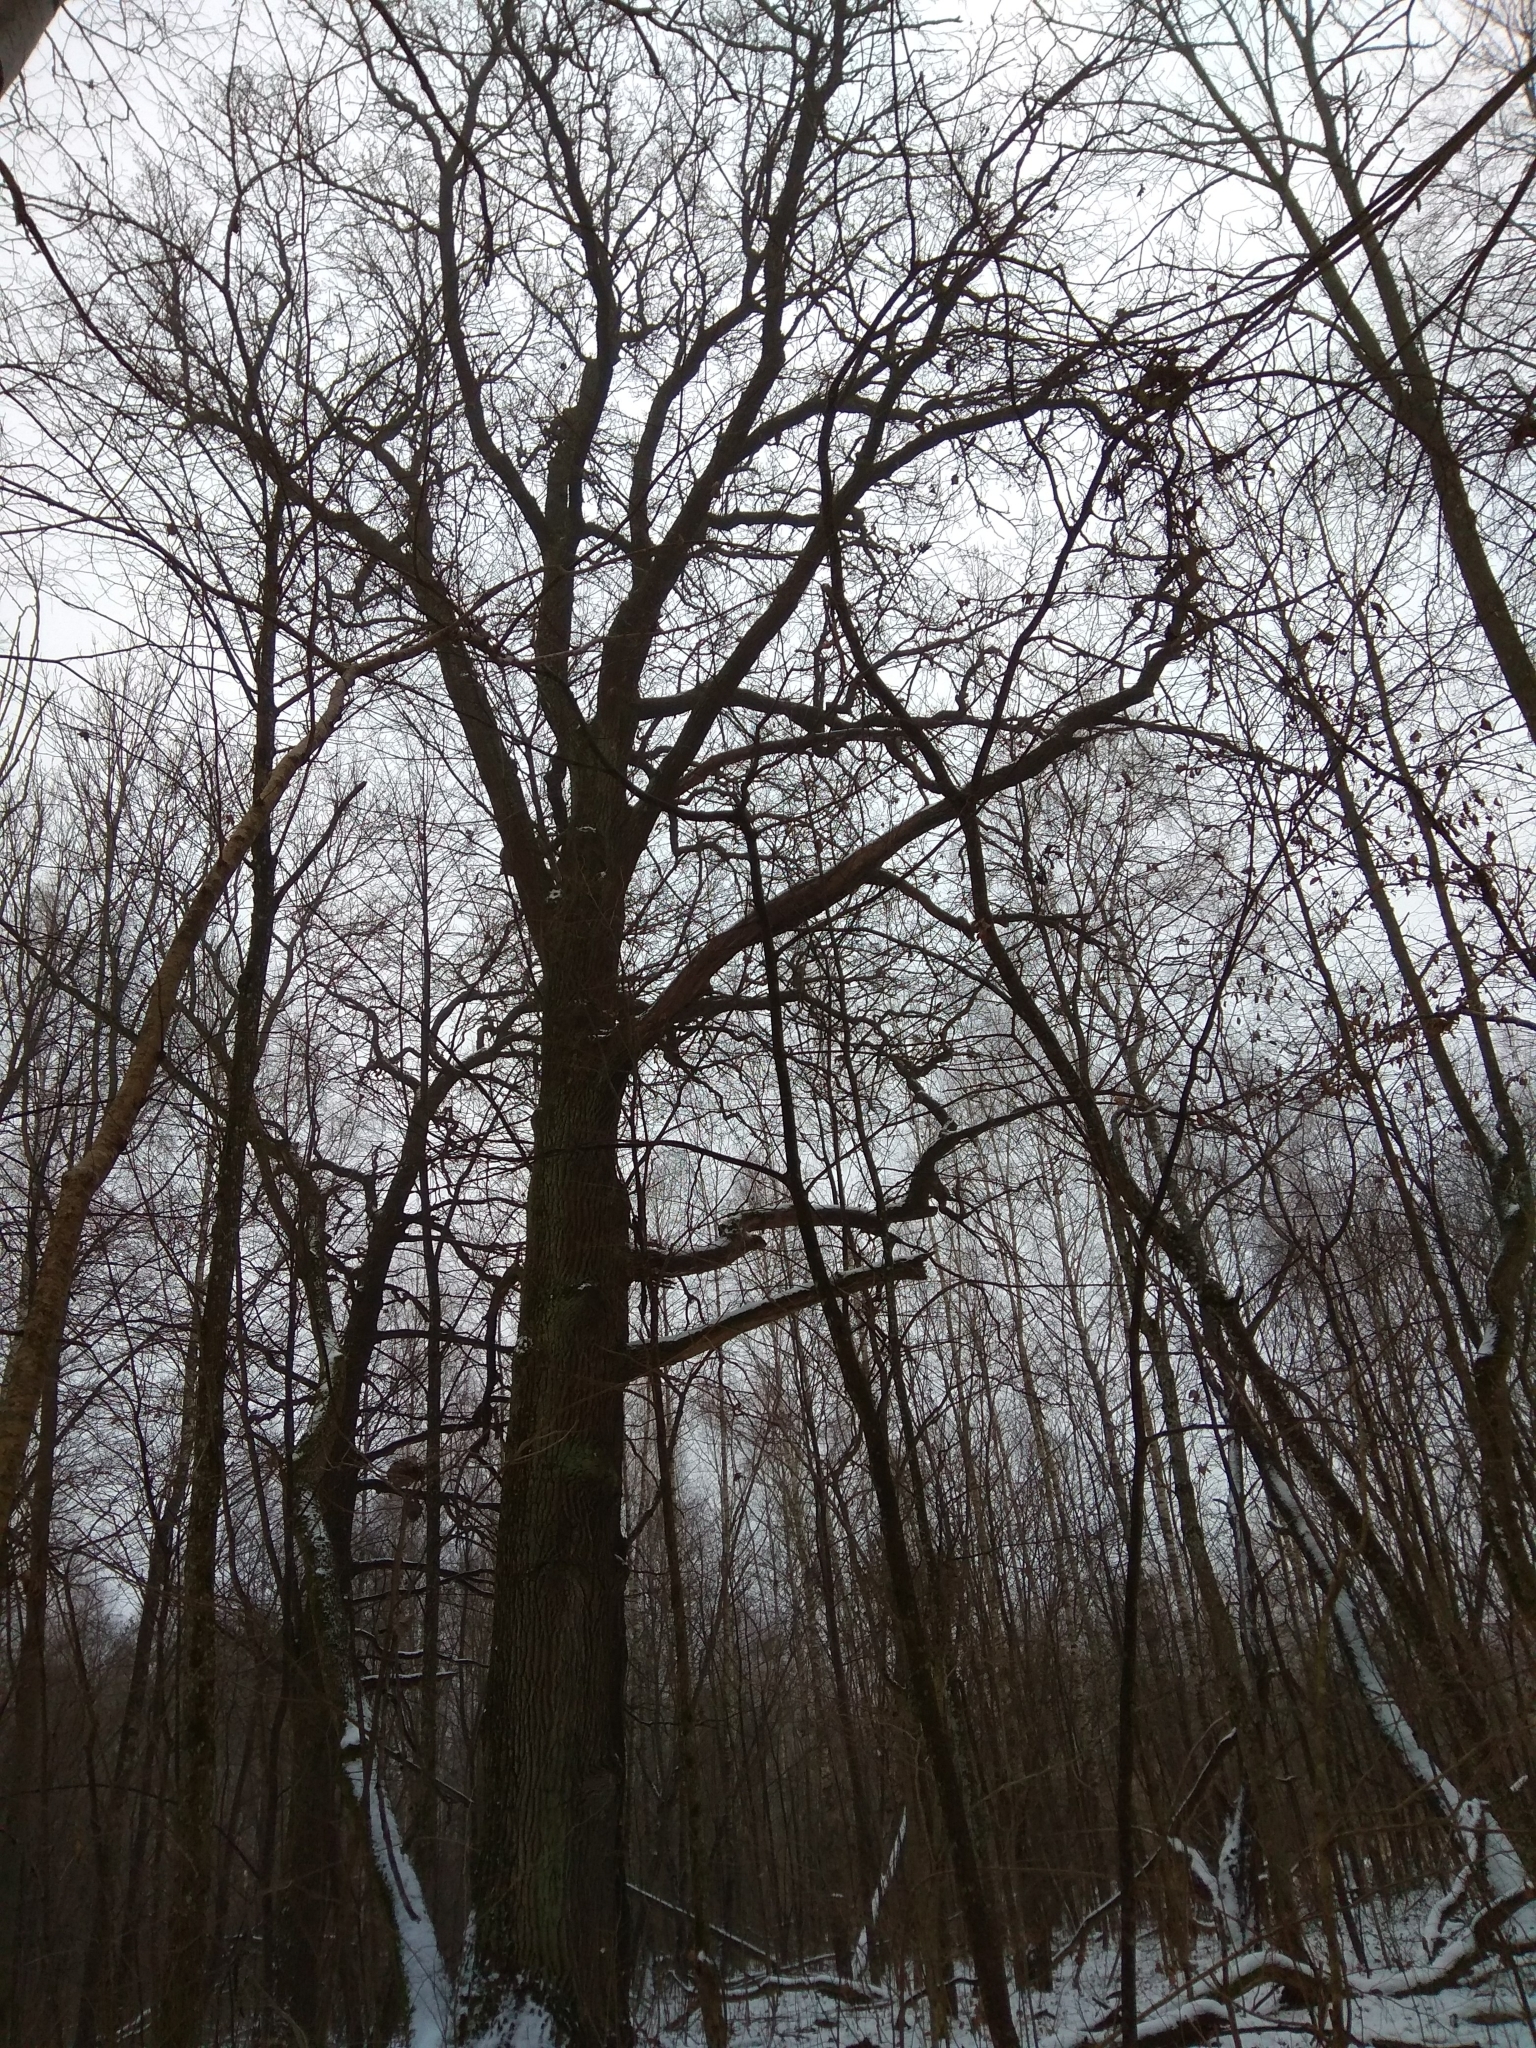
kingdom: Plantae
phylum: Tracheophyta
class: Magnoliopsida
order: Fagales
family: Fagaceae
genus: Quercus
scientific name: Quercus robur
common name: Pedunculate oak
